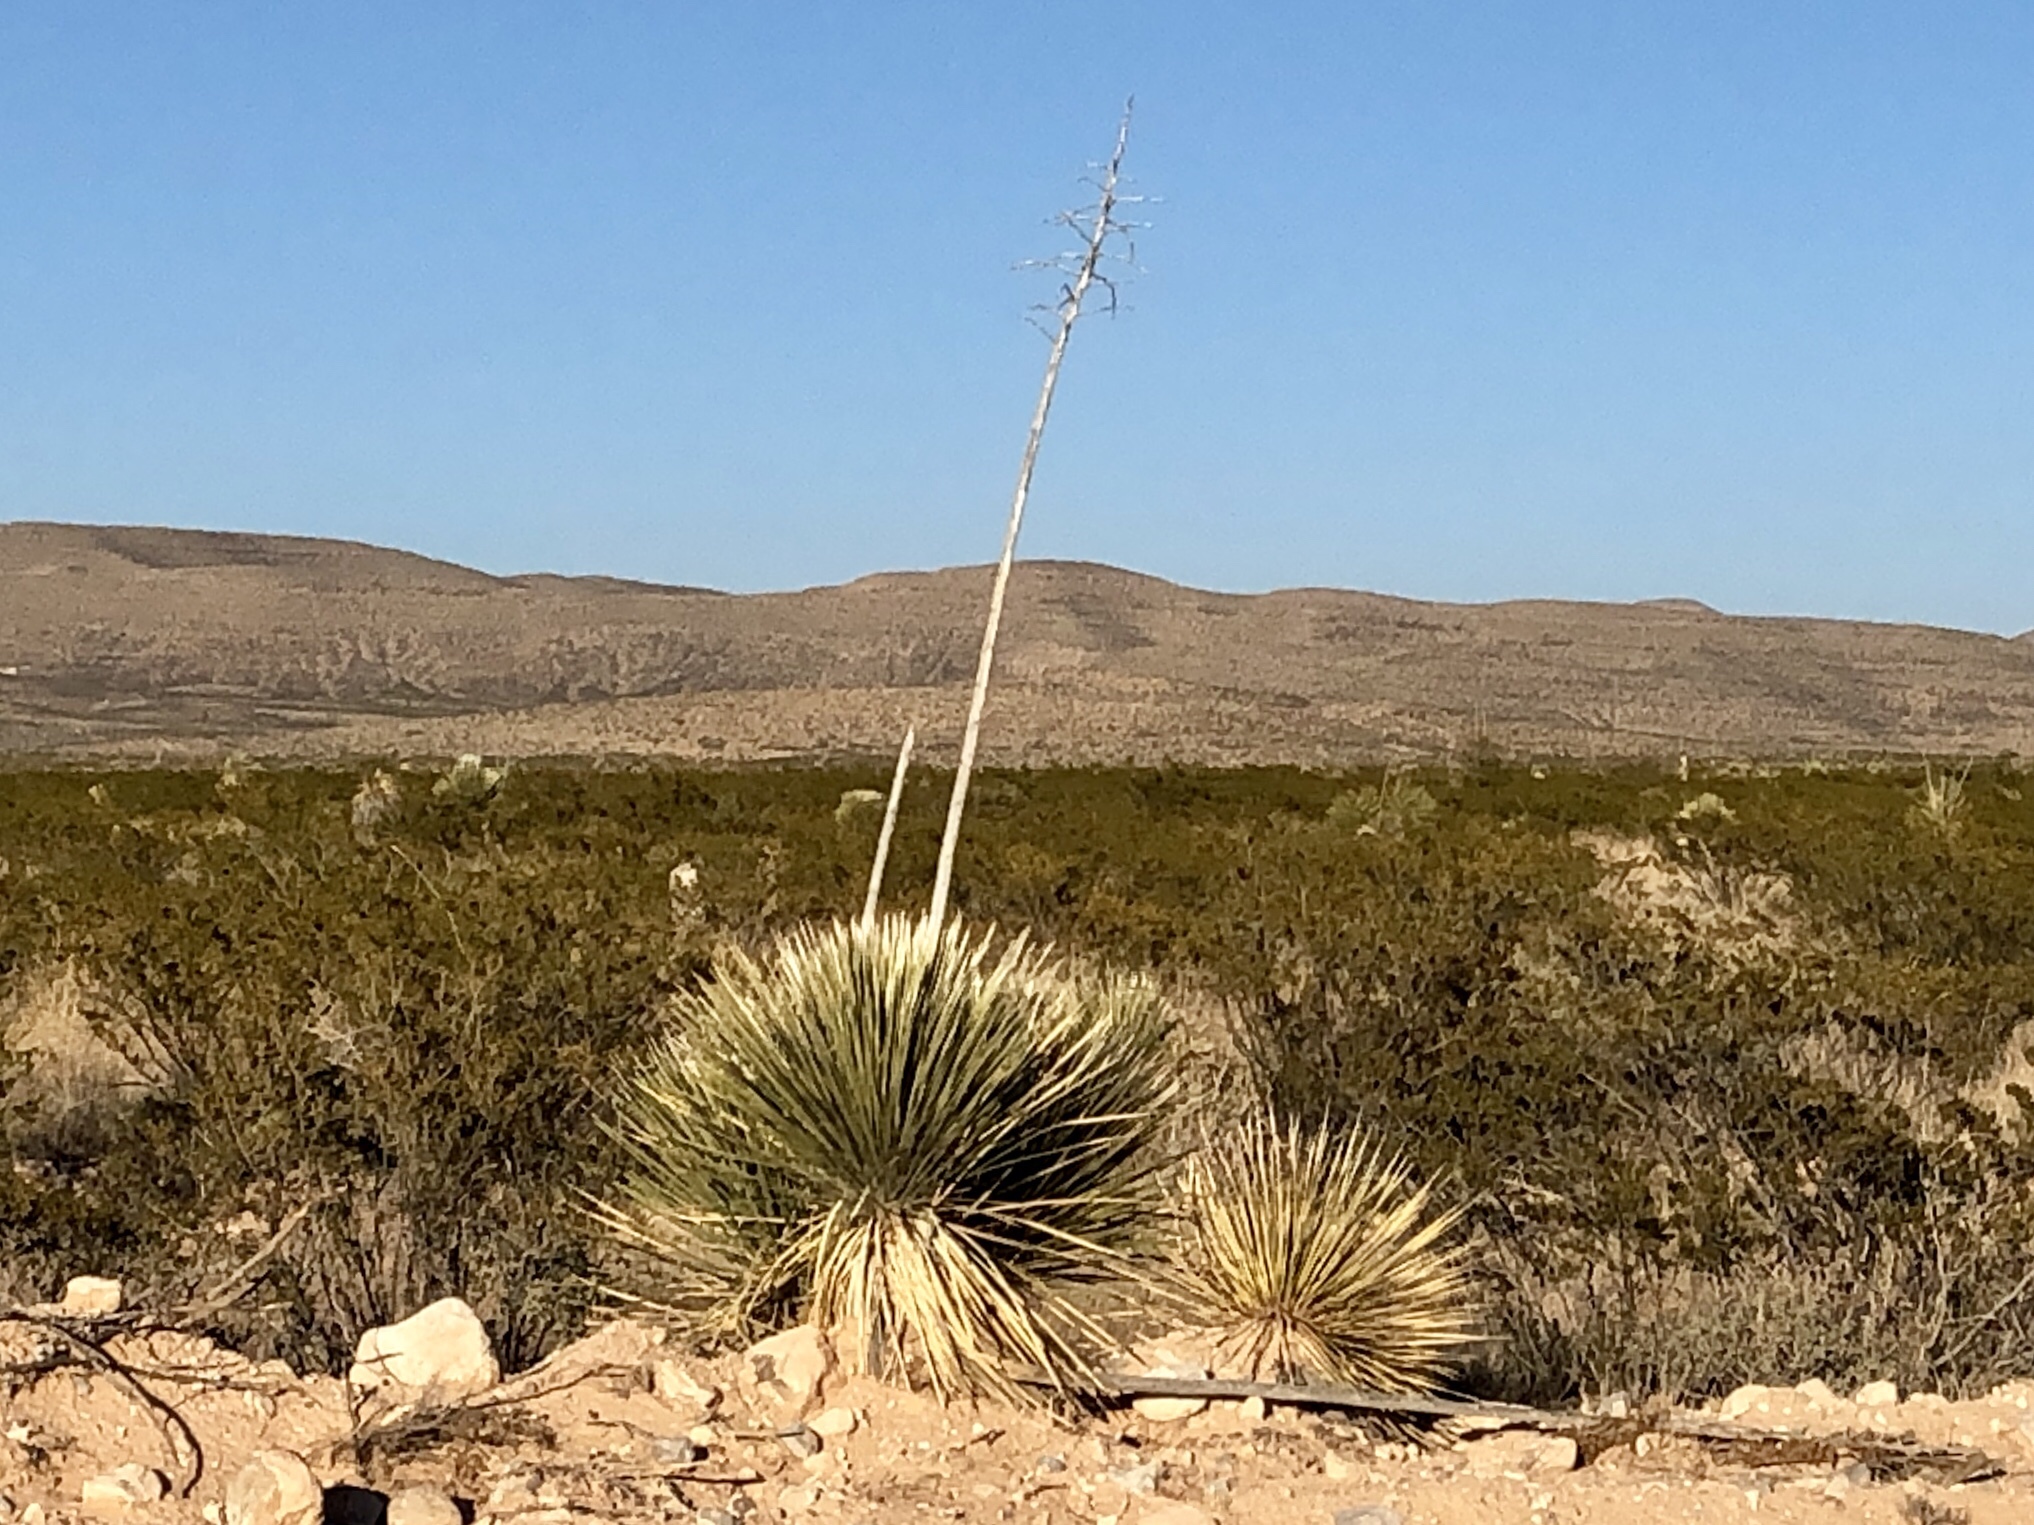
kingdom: Plantae
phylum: Tracheophyta
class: Liliopsida
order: Asparagales
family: Asparagaceae
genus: Yucca
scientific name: Yucca elata
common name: Palmella
